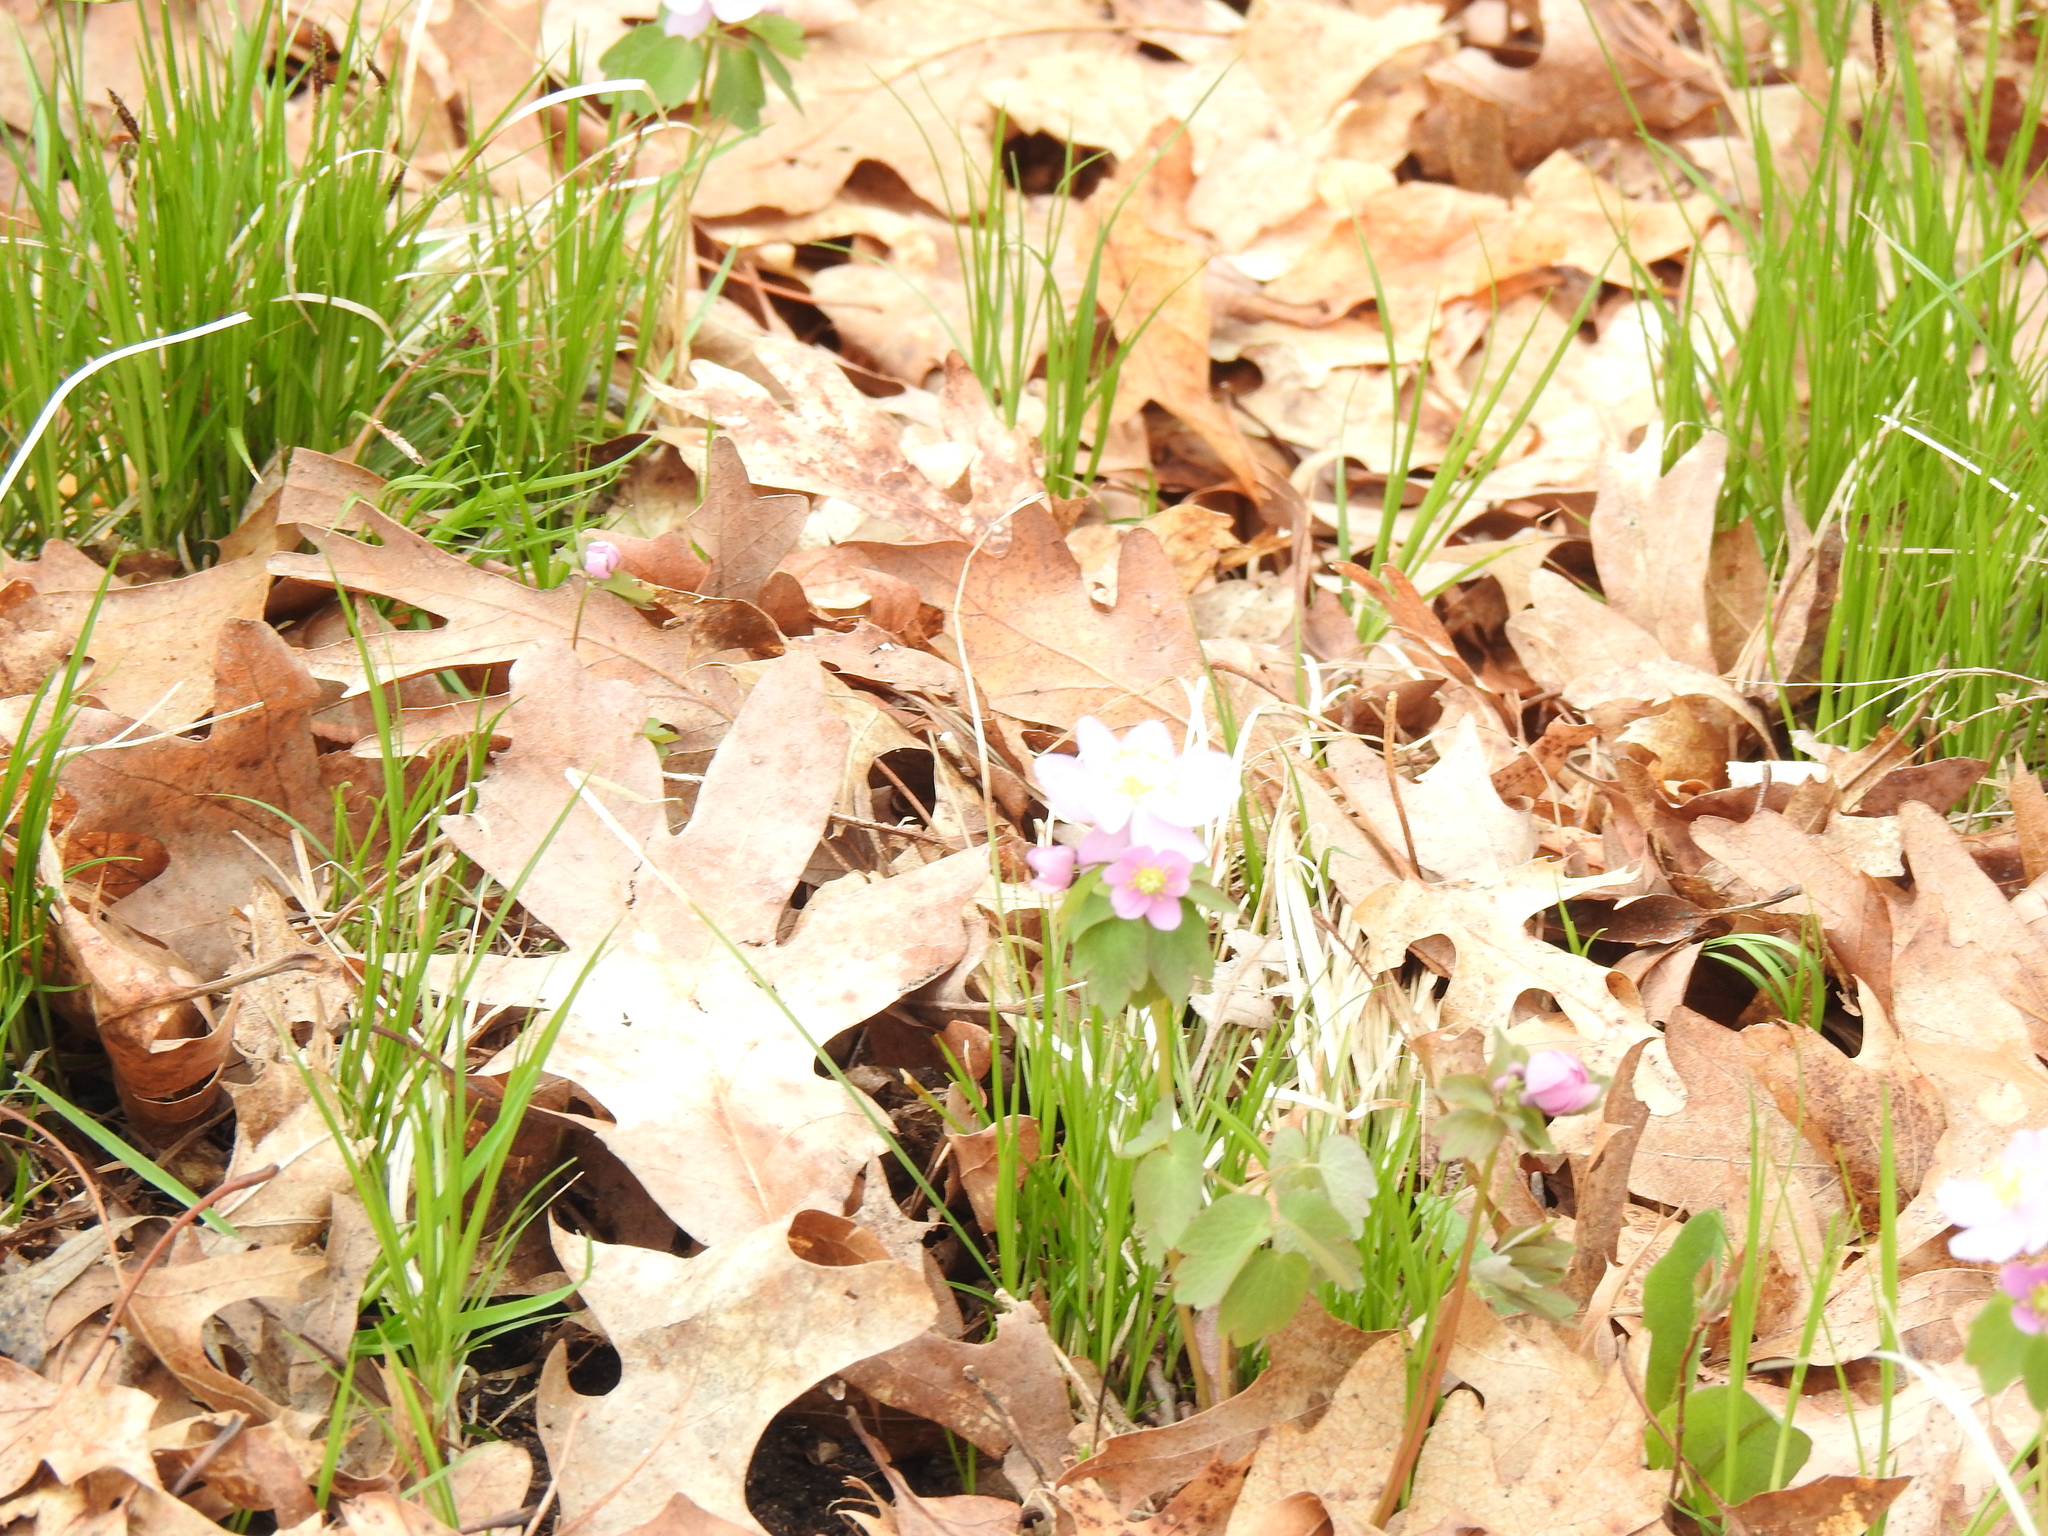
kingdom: Plantae
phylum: Tracheophyta
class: Magnoliopsida
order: Ranunculales
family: Ranunculaceae
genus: Thalictrum
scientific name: Thalictrum thalictroides
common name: Rue-anemone
